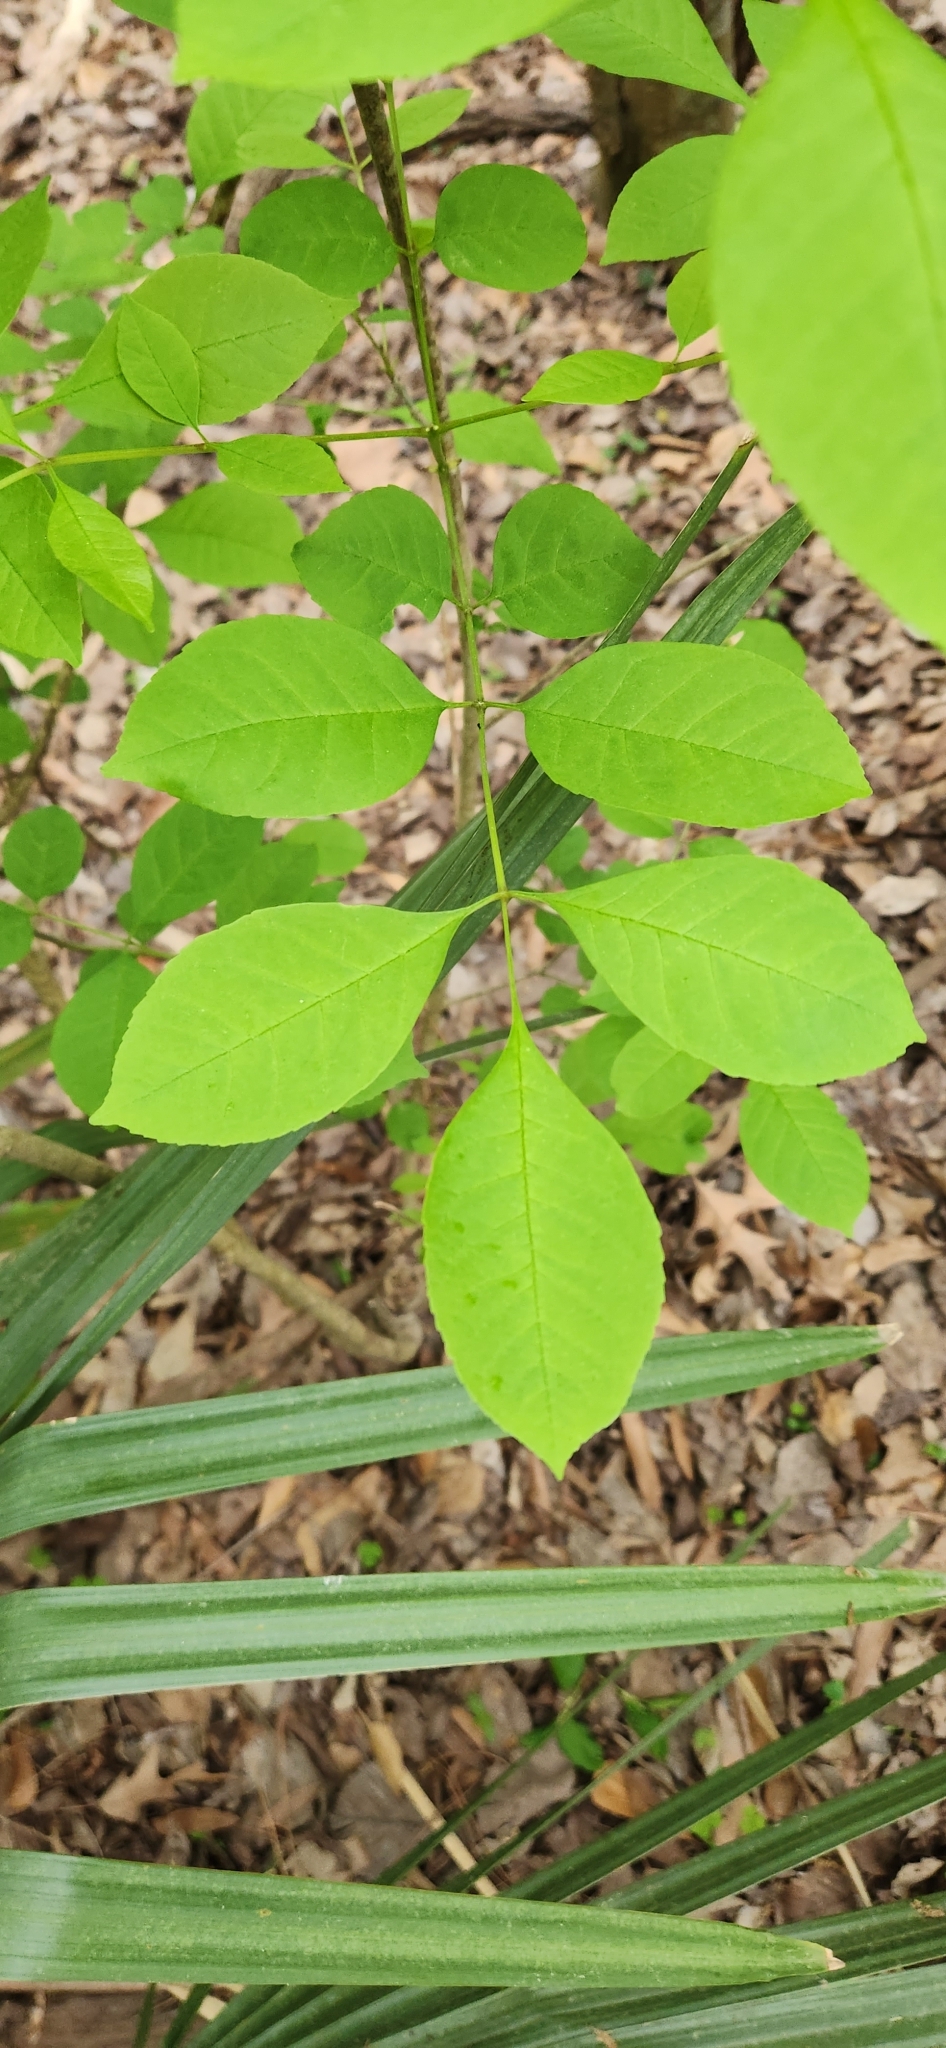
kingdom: Plantae
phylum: Tracheophyta
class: Magnoliopsida
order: Lamiales
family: Oleaceae
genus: Fraxinus
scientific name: Fraxinus pennsylvanica
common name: Green ash
